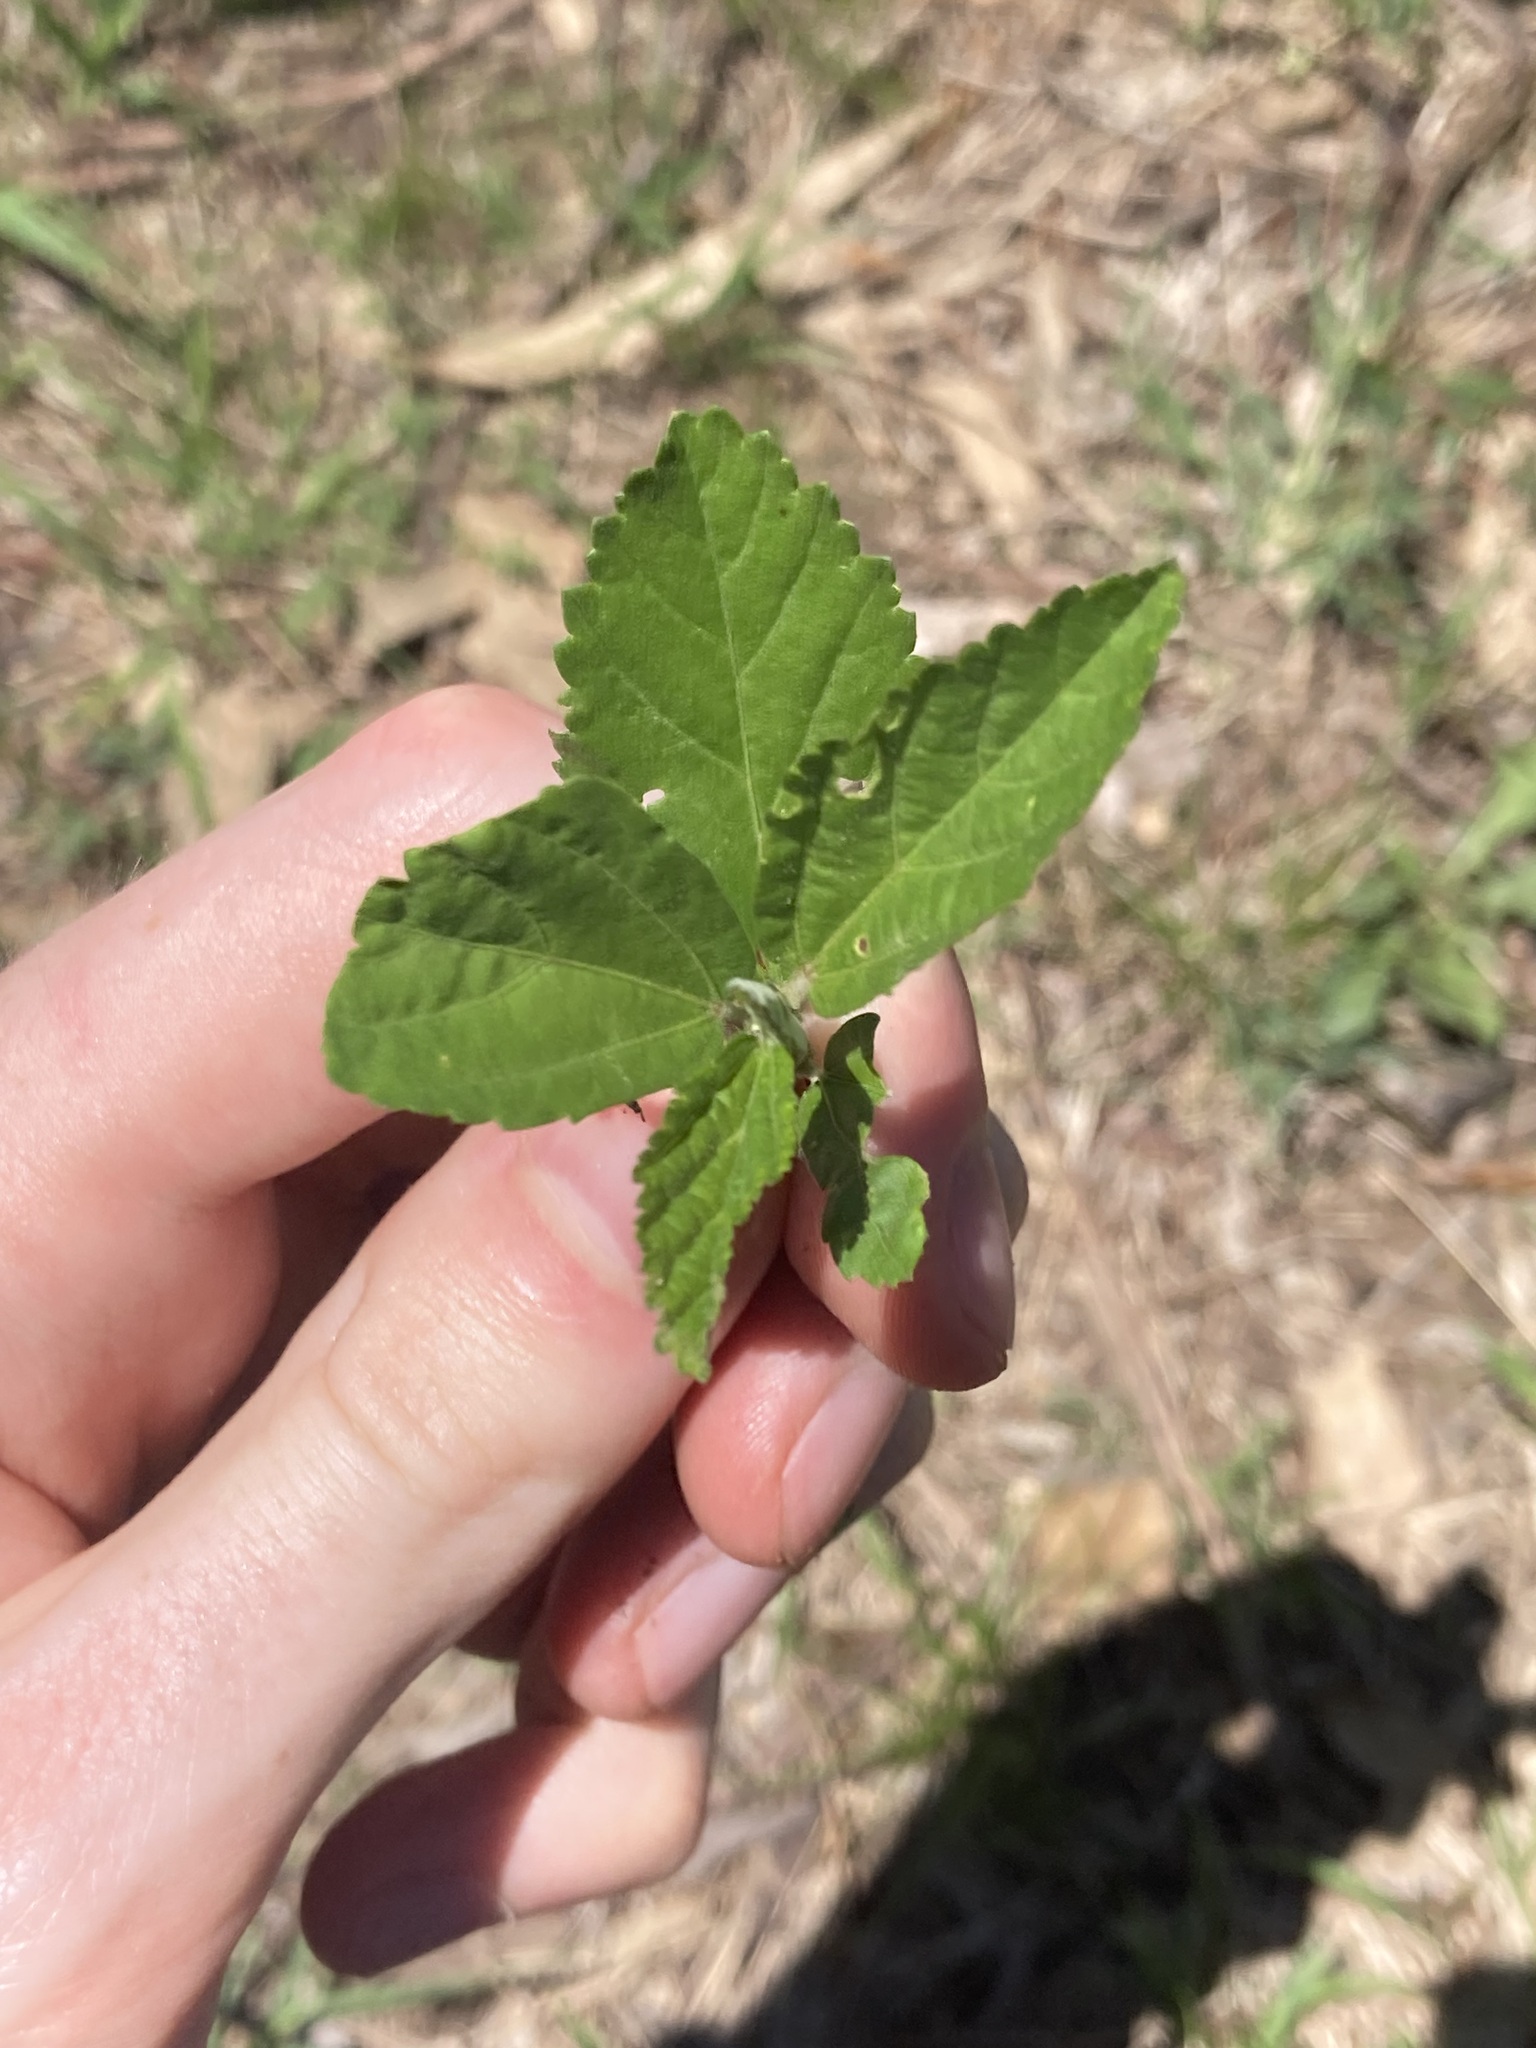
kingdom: Plantae
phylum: Tracheophyta
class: Magnoliopsida
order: Malvales
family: Malvaceae
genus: Sida
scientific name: Sida rhombifolia
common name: Queensland-hemp
